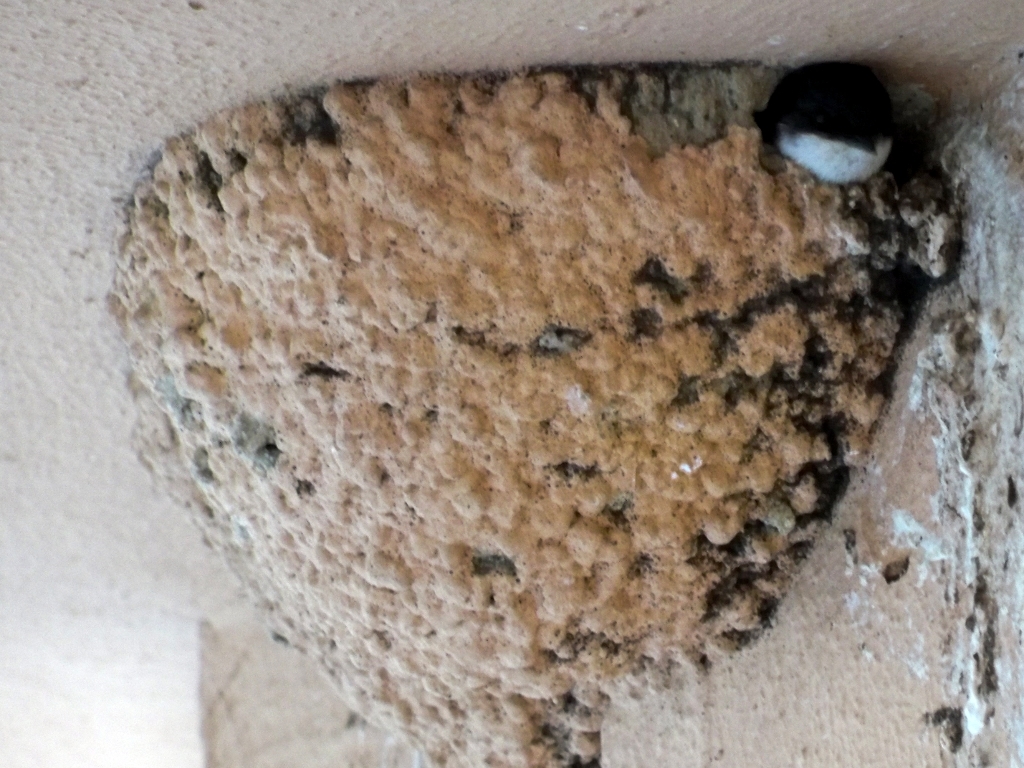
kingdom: Animalia
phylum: Chordata
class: Aves
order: Passeriformes
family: Hirundinidae
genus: Delichon
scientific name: Delichon urbicum
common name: Common house martin
